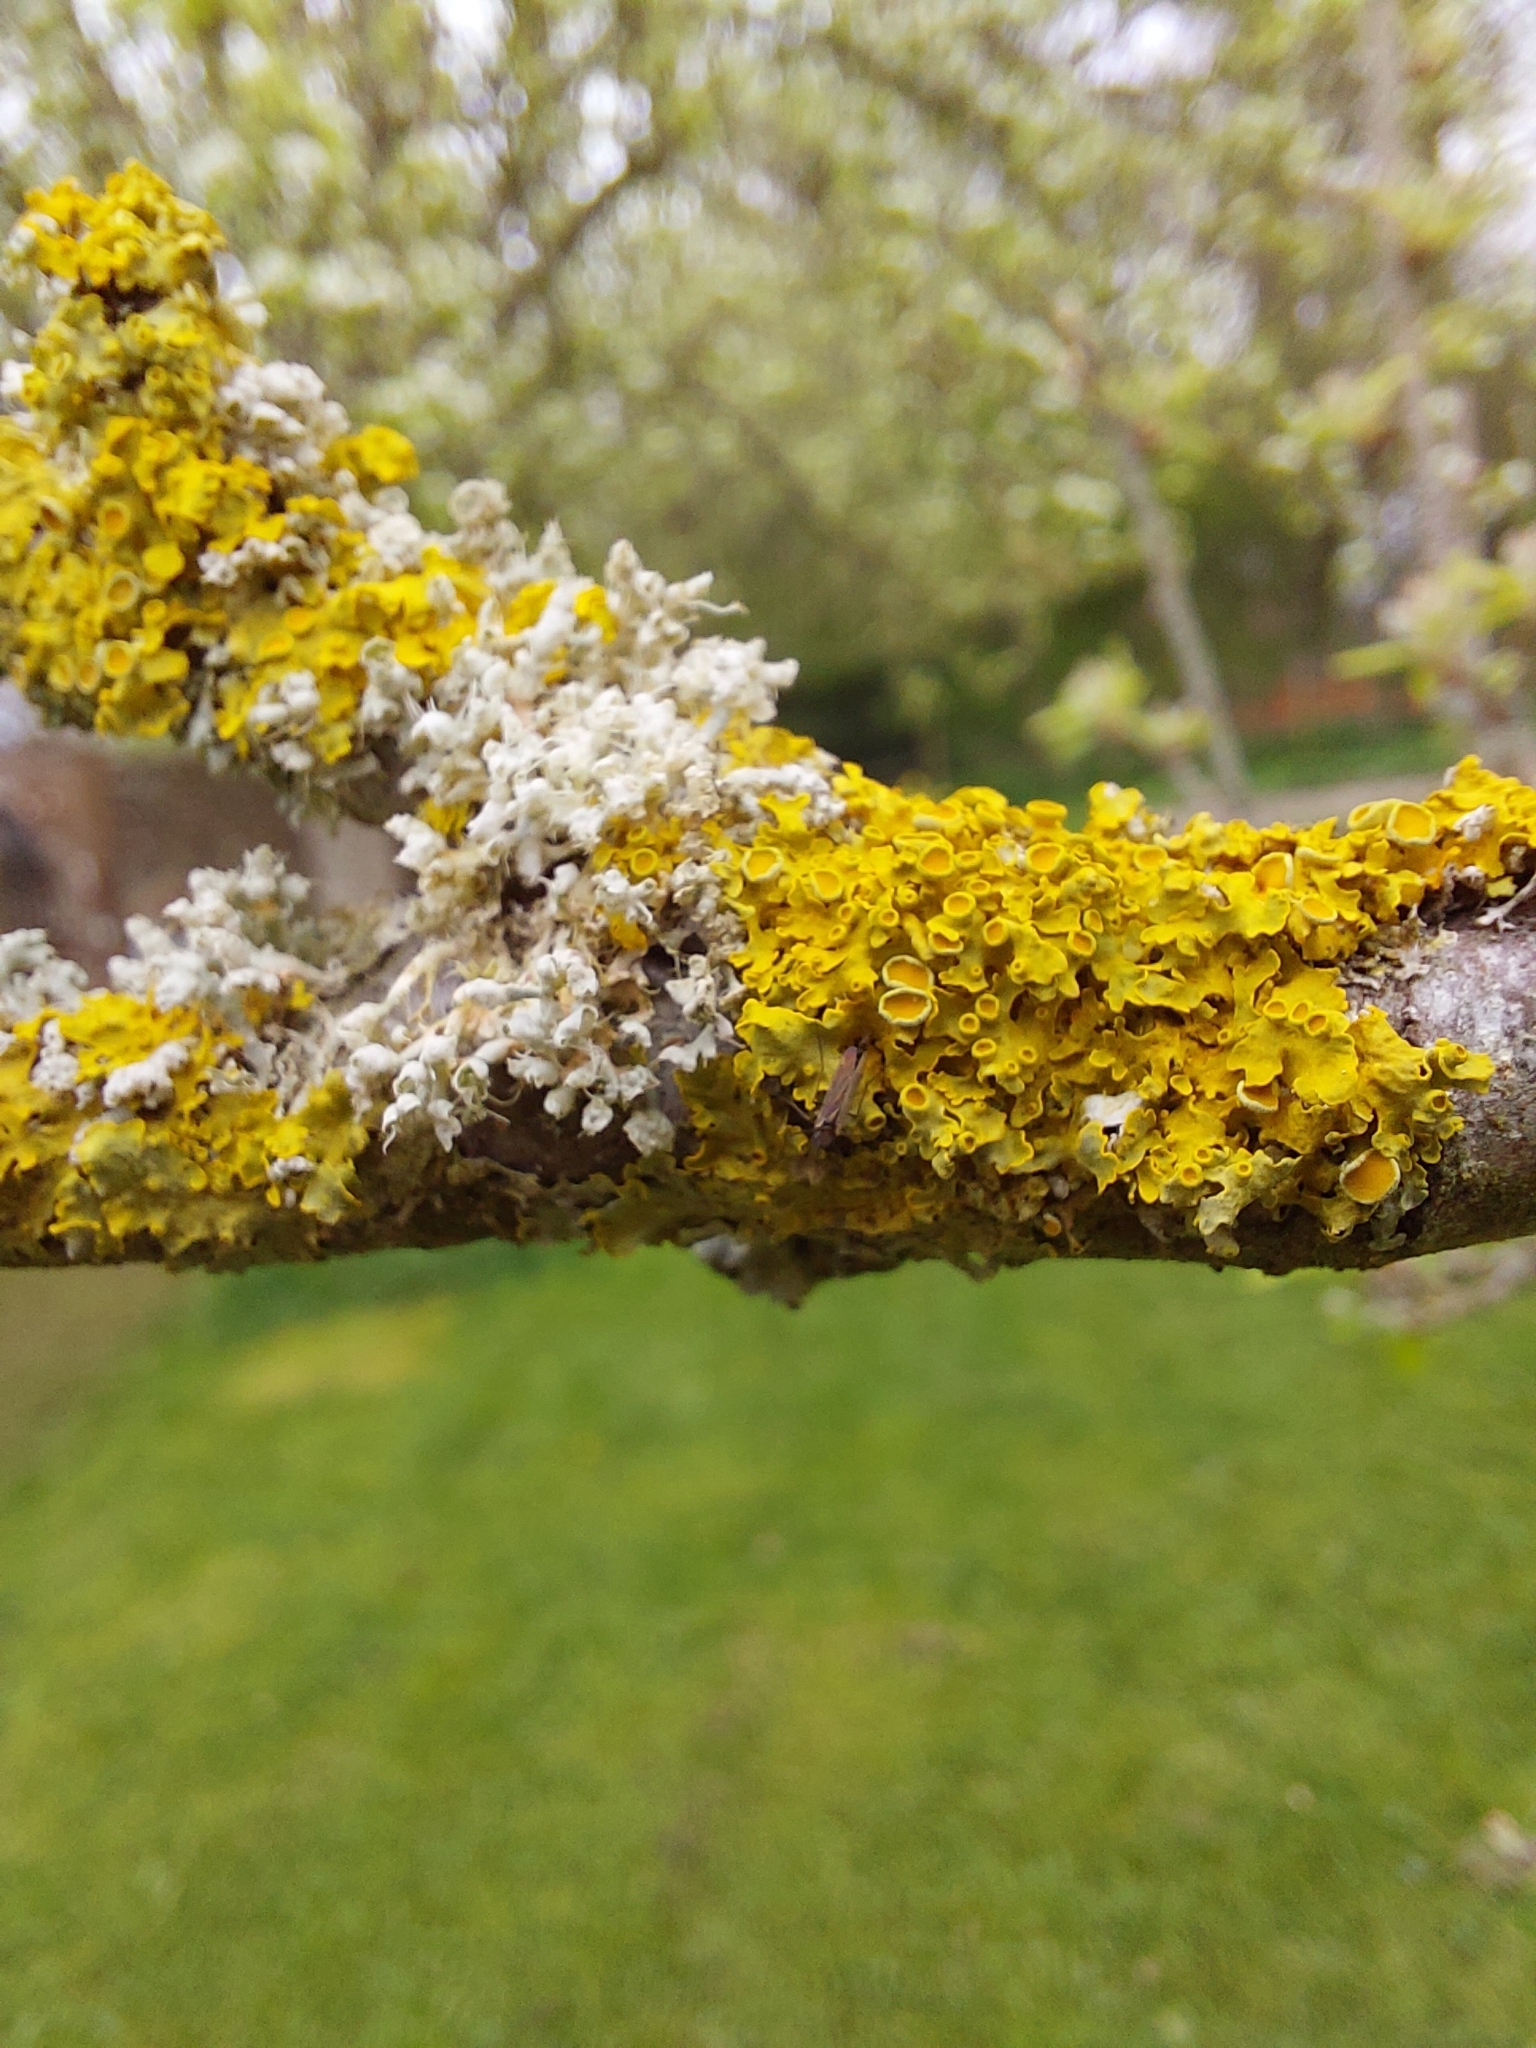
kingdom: Fungi
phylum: Ascomycota
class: Lecanoromycetes
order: Teloschistales
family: Teloschistaceae
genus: Xanthoria
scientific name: Xanthoria parietina
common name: Common orange lichen
